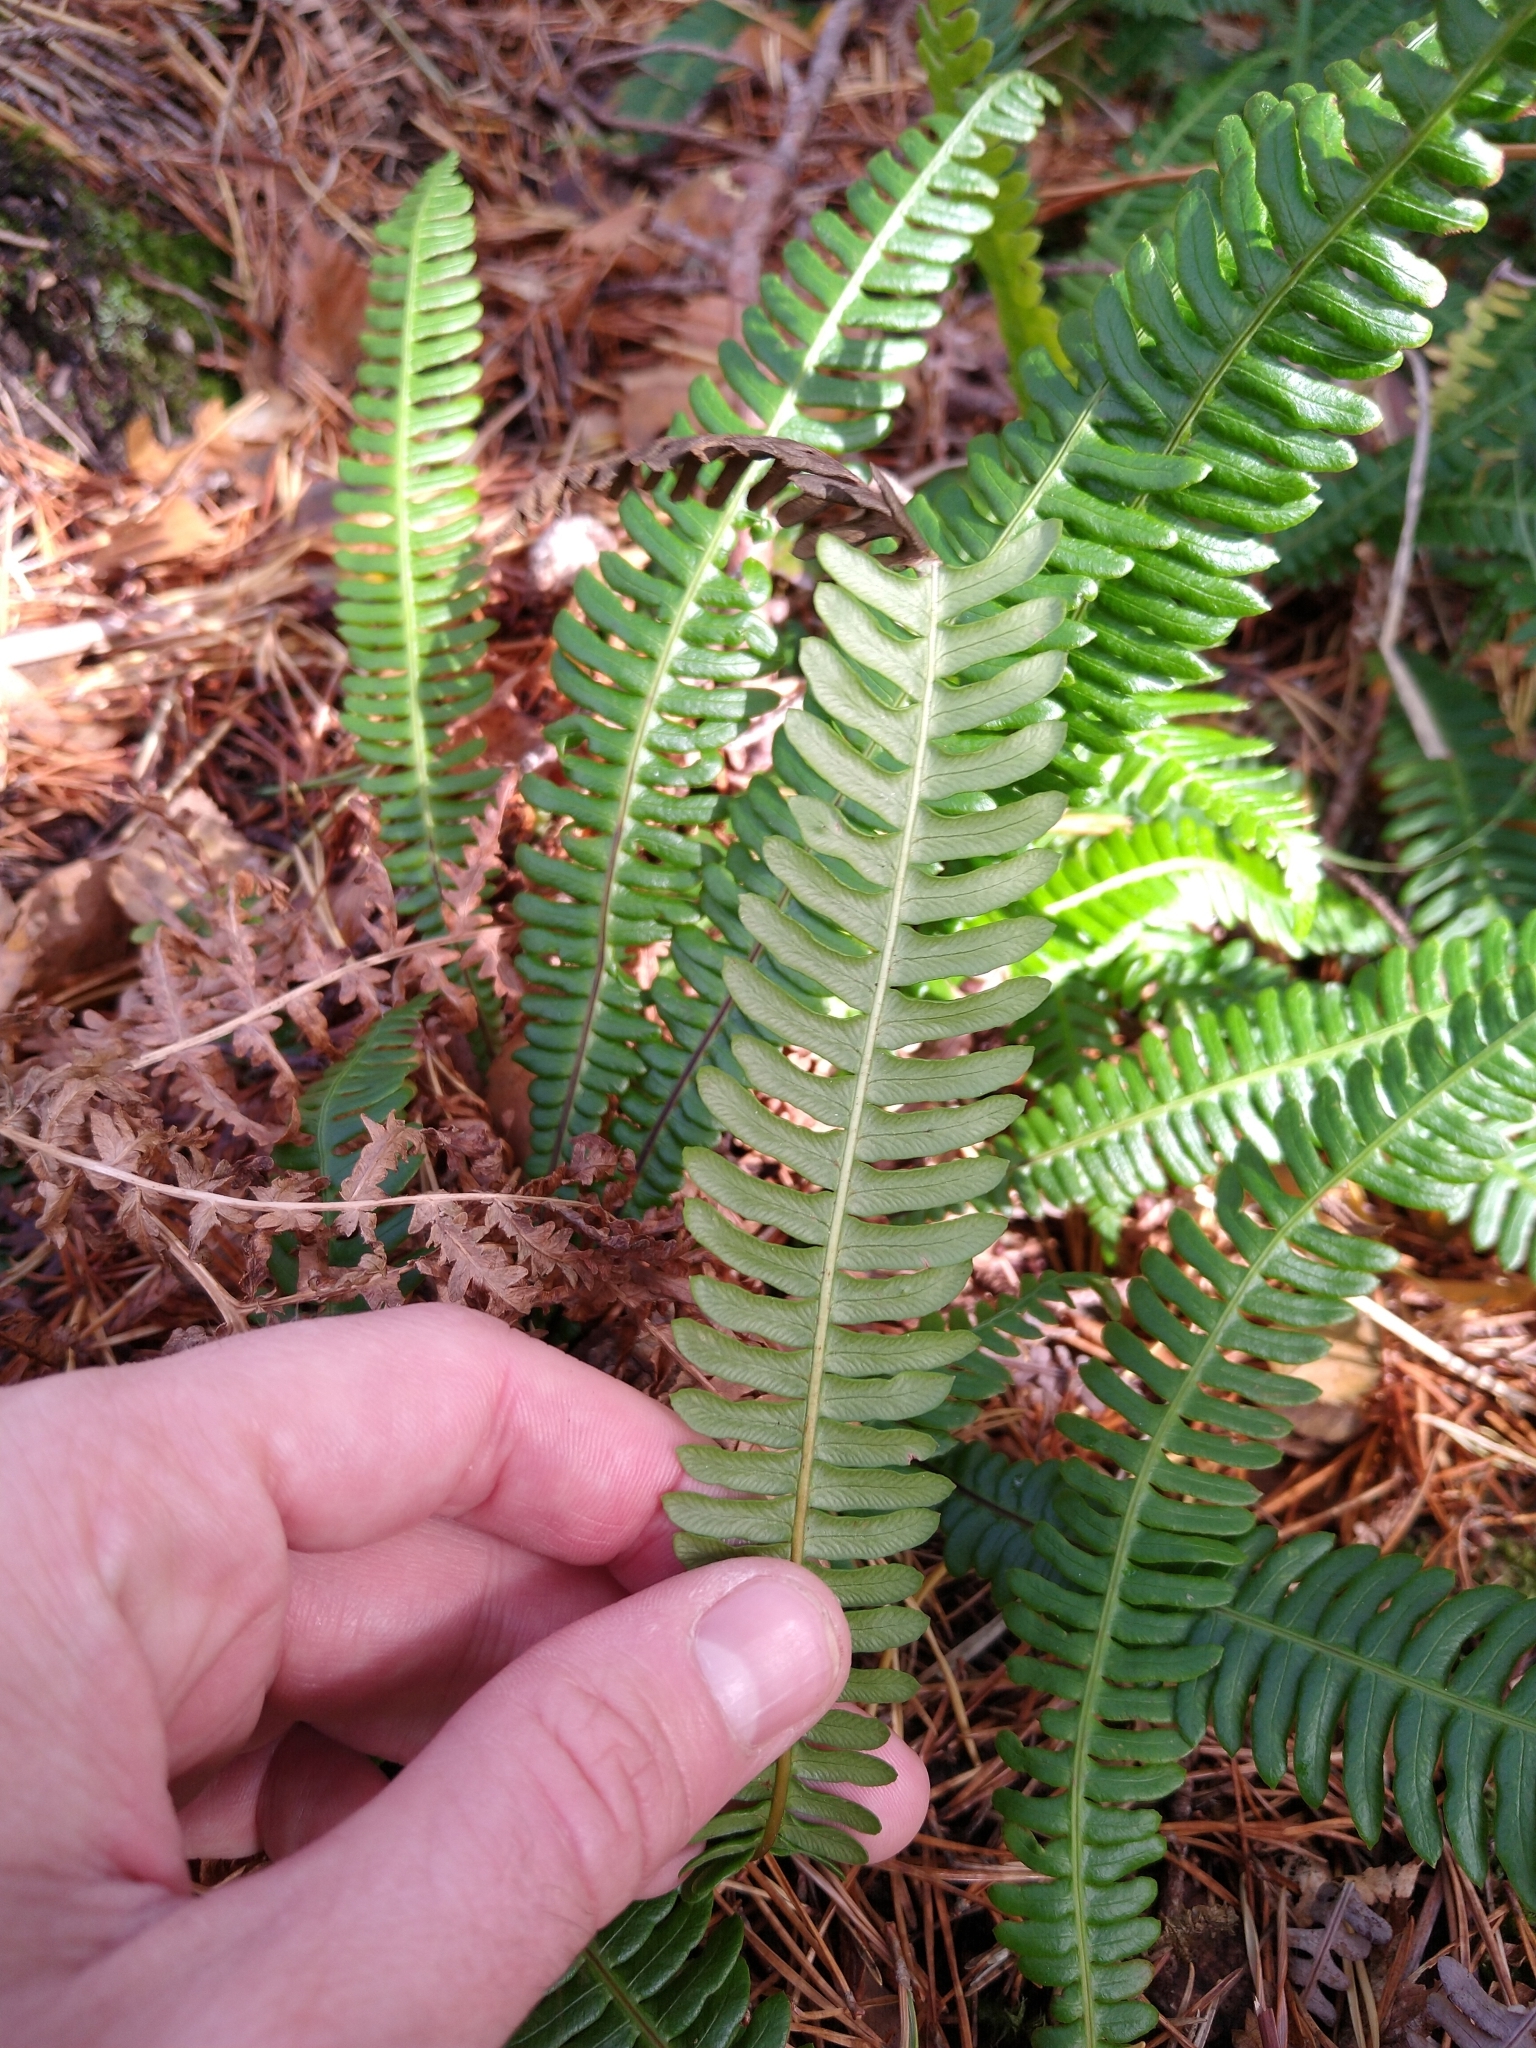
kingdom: Plantae
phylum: Tracheophyta
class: Polypodiopsida
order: Polypodiales
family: Blechnaceae
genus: Struthiopteris
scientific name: Struthiopteris spicant
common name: Deer fern
